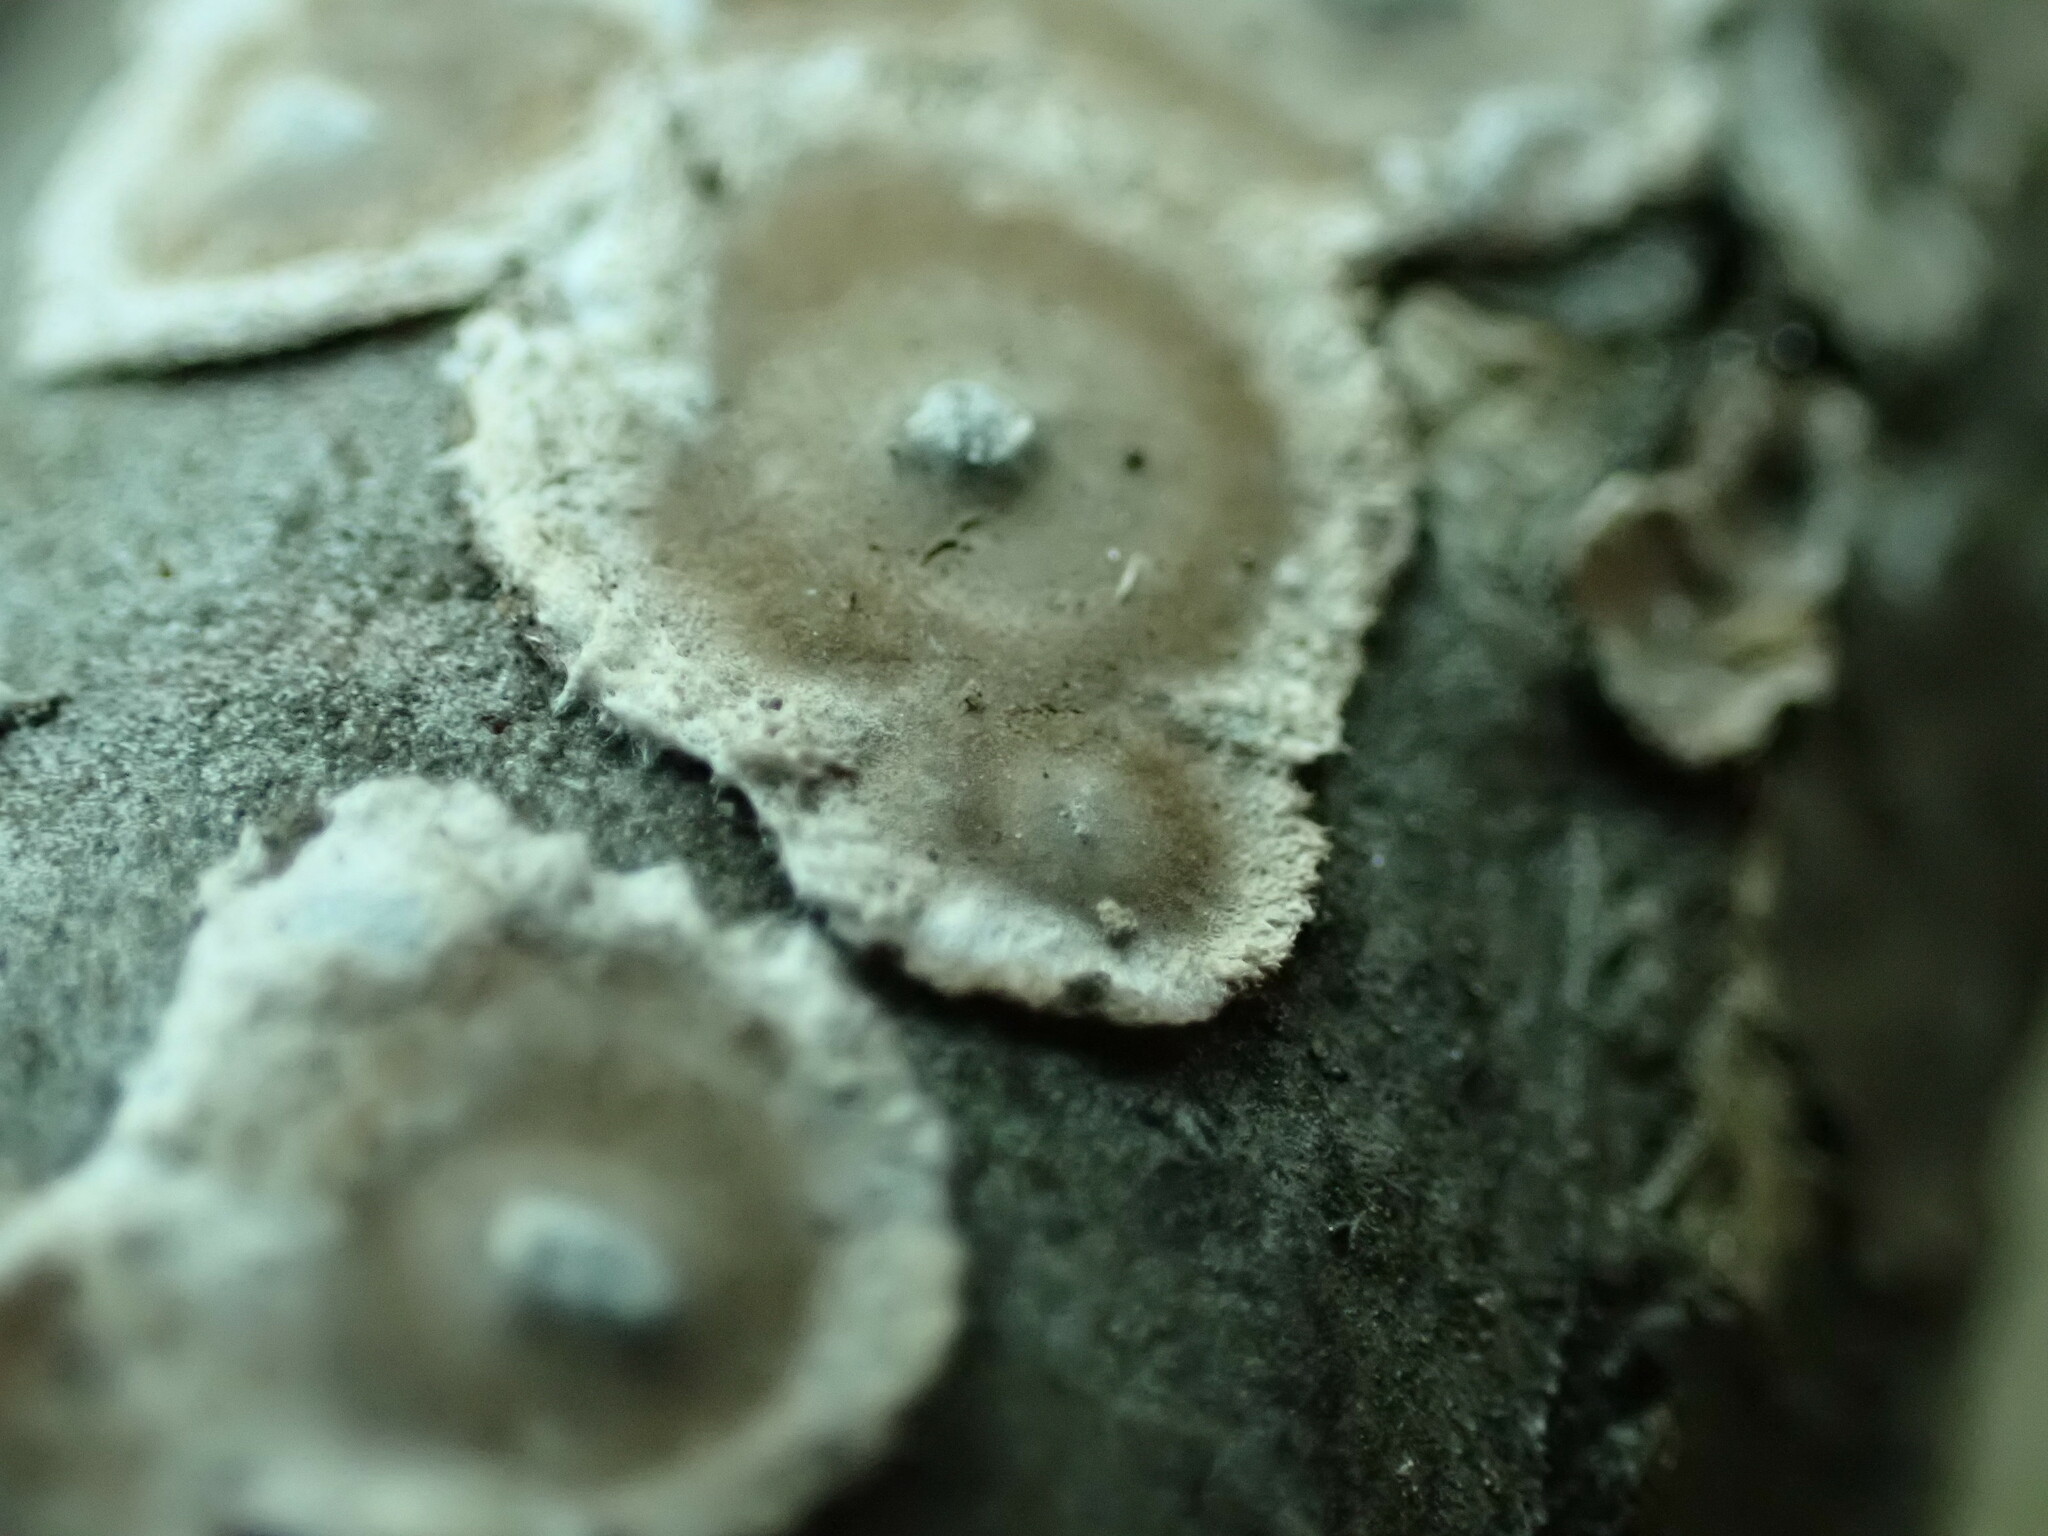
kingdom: Fungi
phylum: Basidiomycota
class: Agaricomycetes
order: Russulales
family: Peniophoraceae
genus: Peniophora
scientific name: Peniophora albobadia
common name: Giraffe spots
